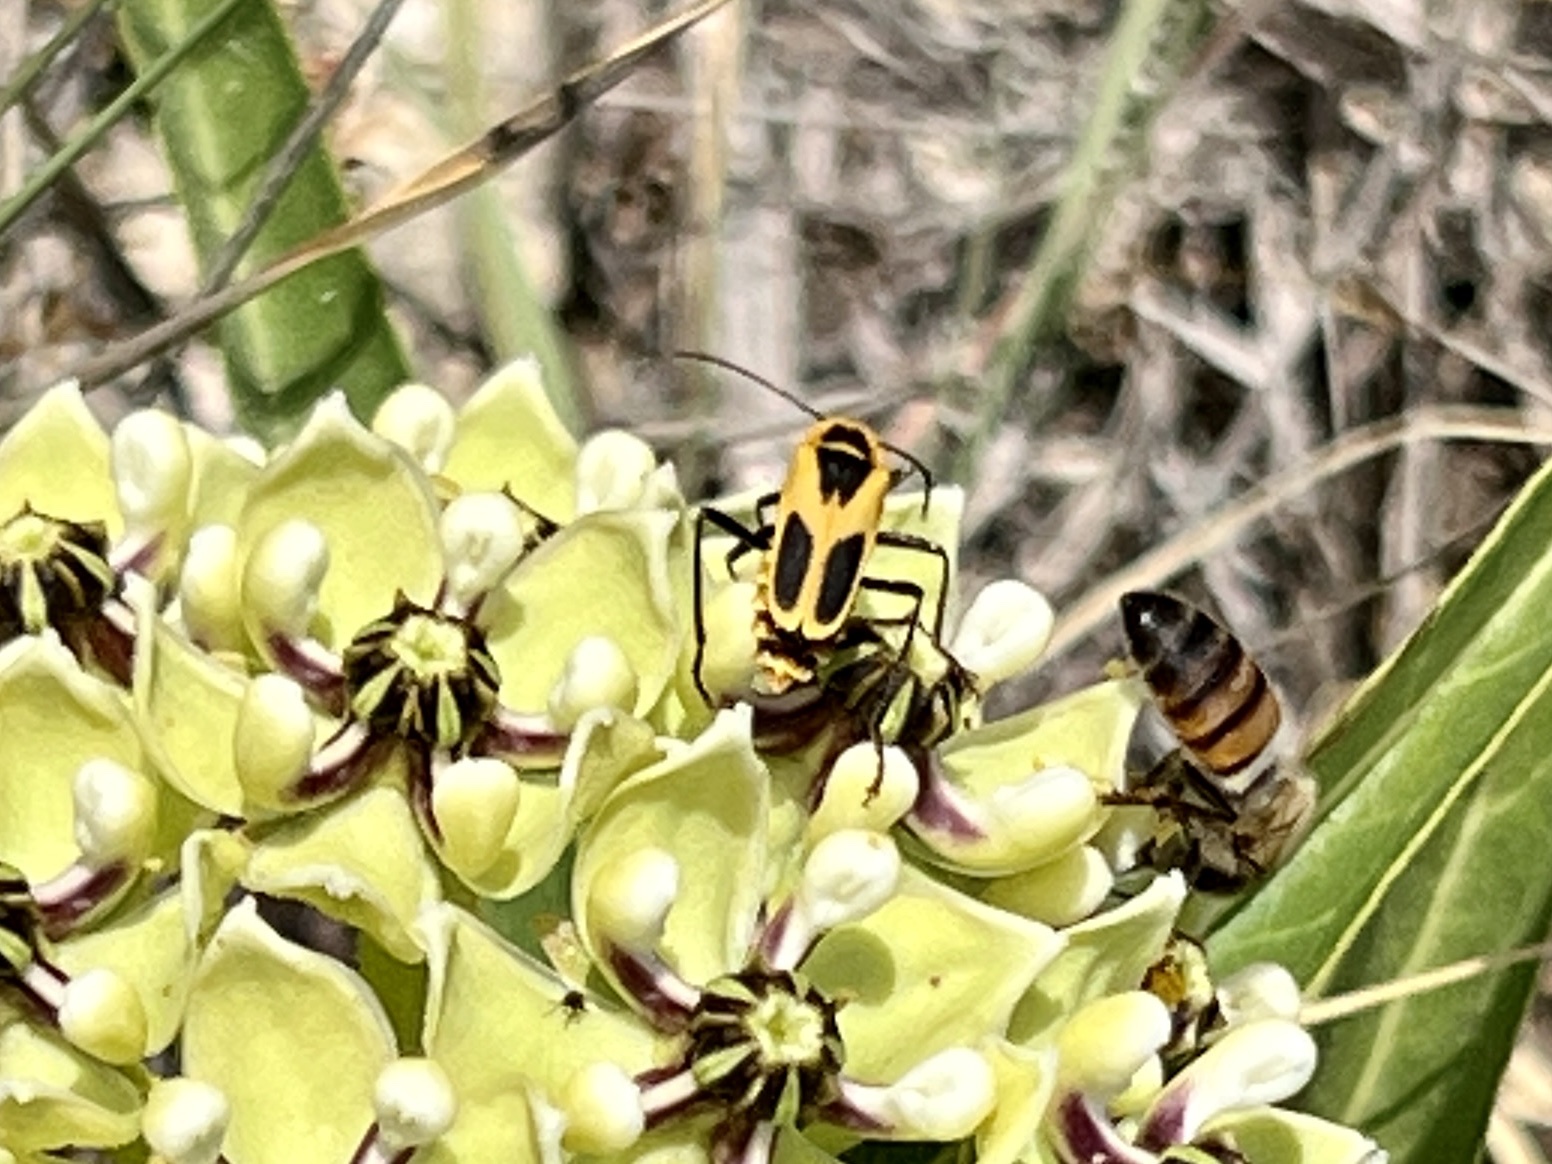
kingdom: Animalia
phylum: Arthropoda
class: Insecta
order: Coleoptera
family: Cantharidae
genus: Chauliognathus
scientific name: Chauliognathus scutellaris
